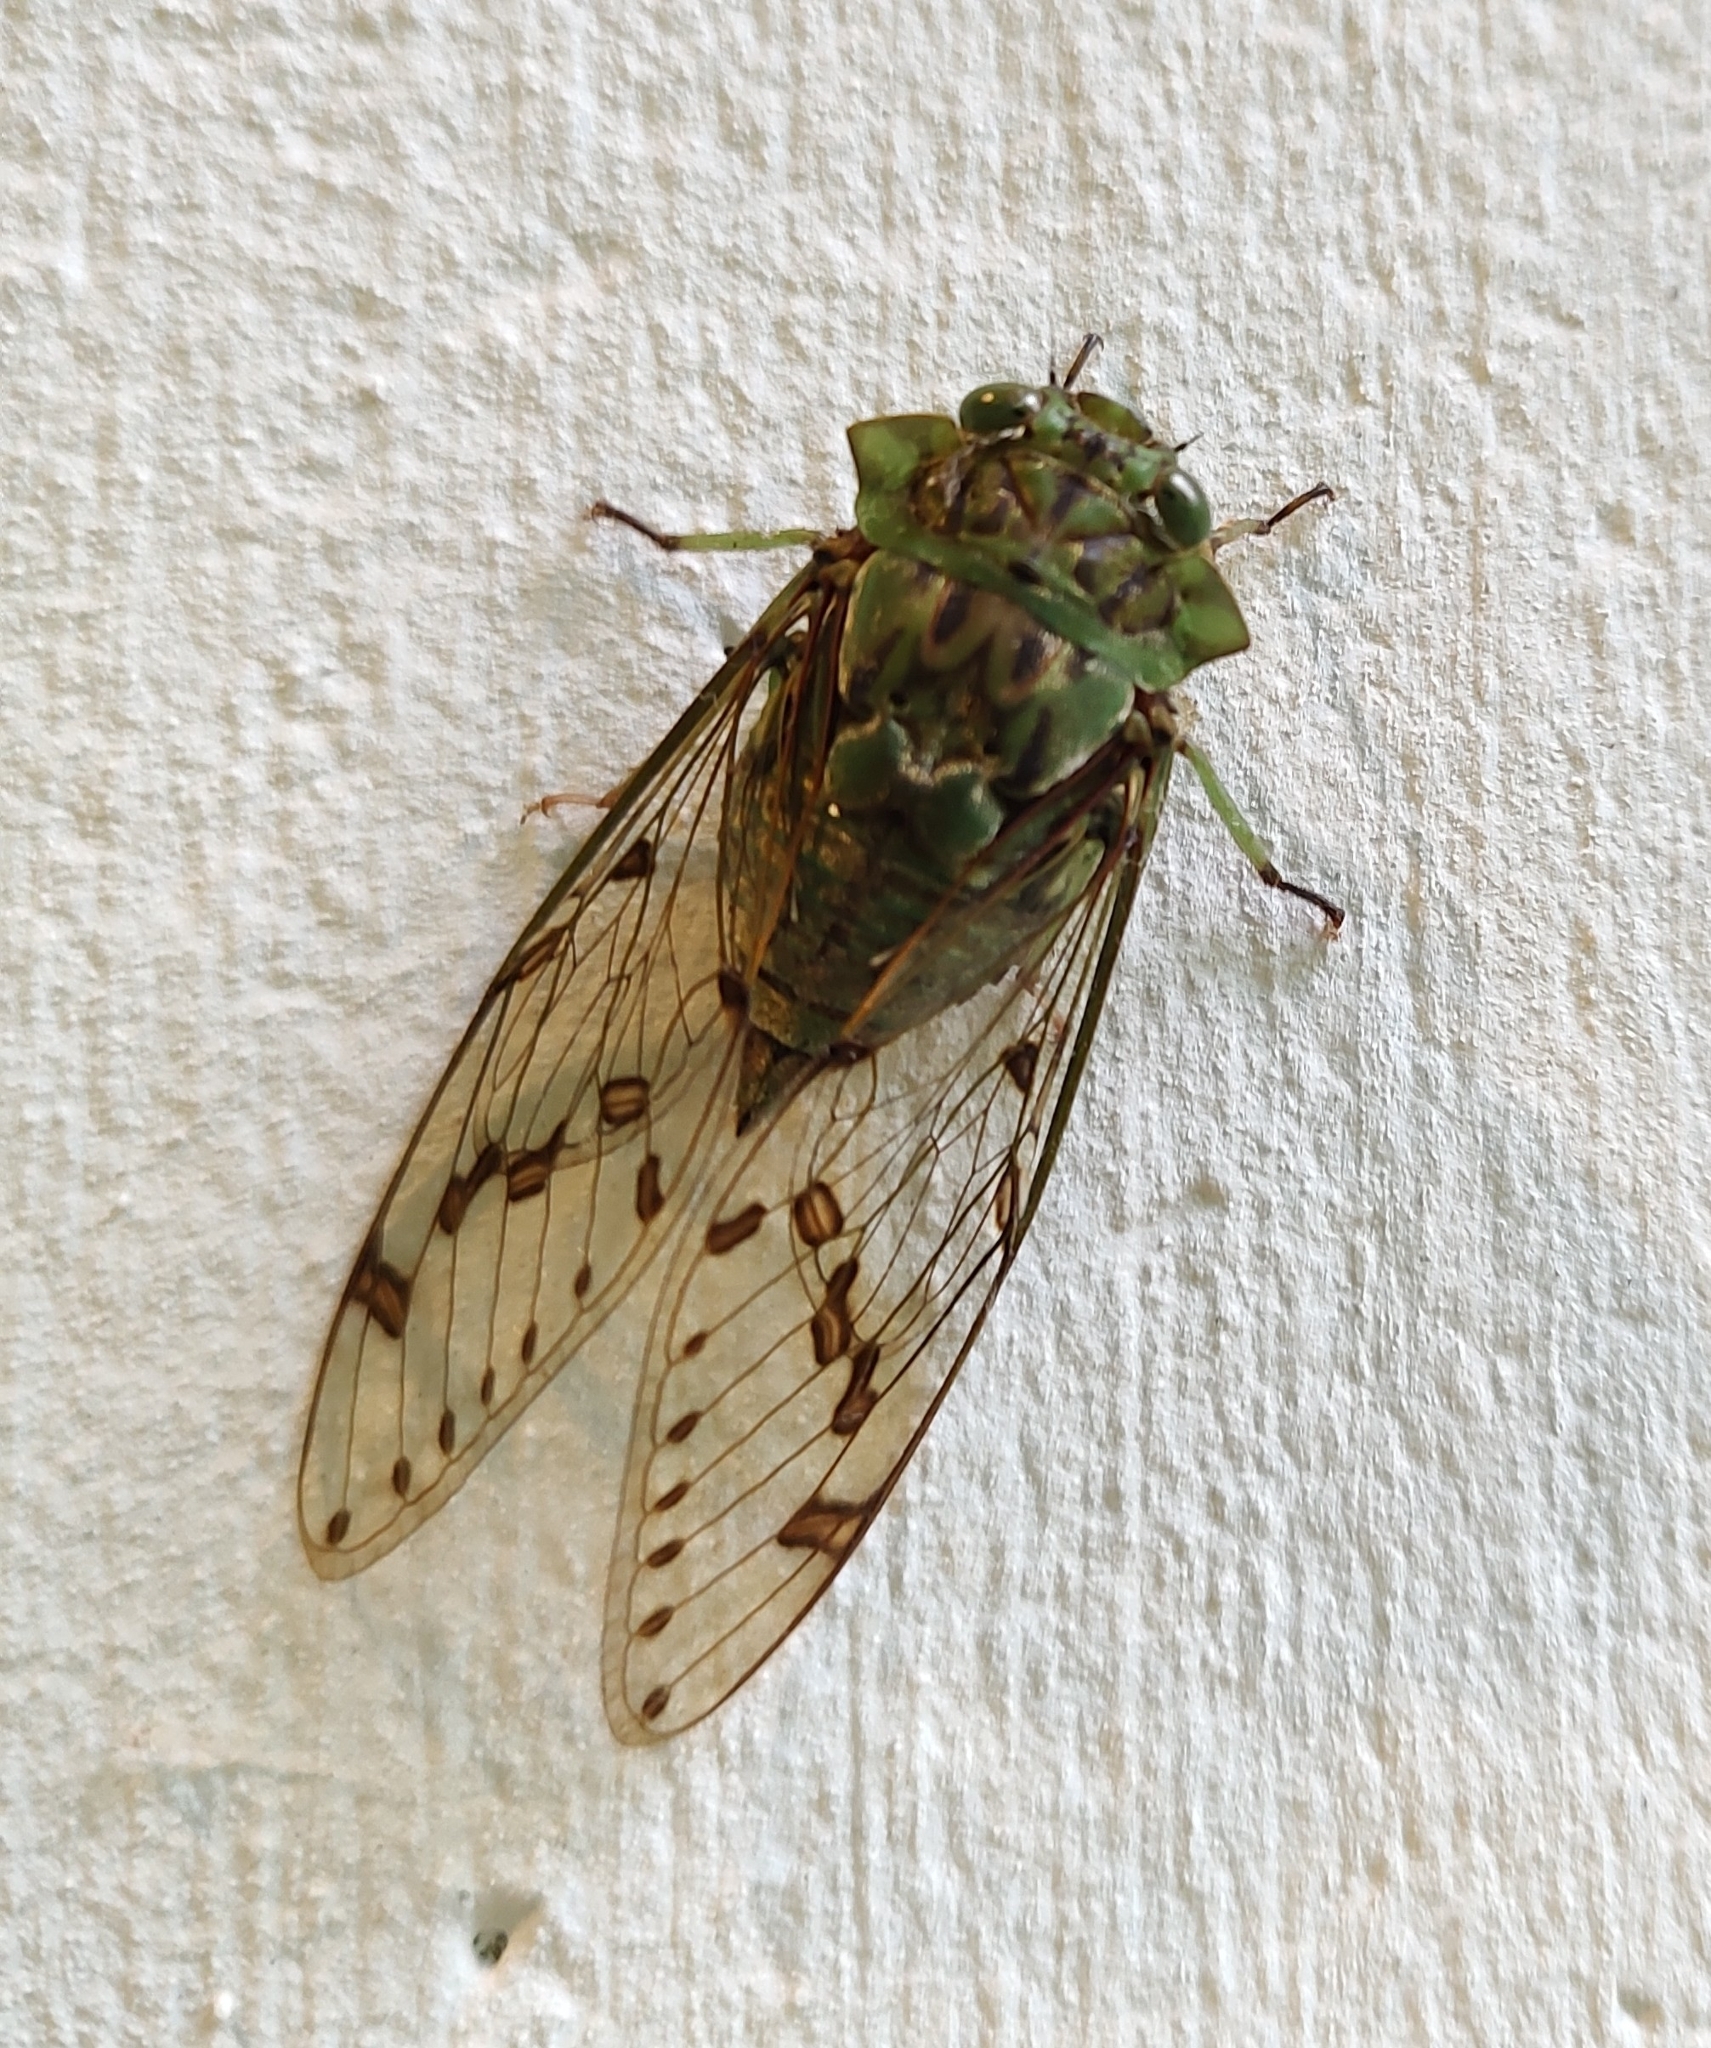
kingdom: Animalia
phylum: Arthropoda
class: Insecta
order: Hemiptera
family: Cicadidae
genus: Zammara
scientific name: Zammara tympanum
